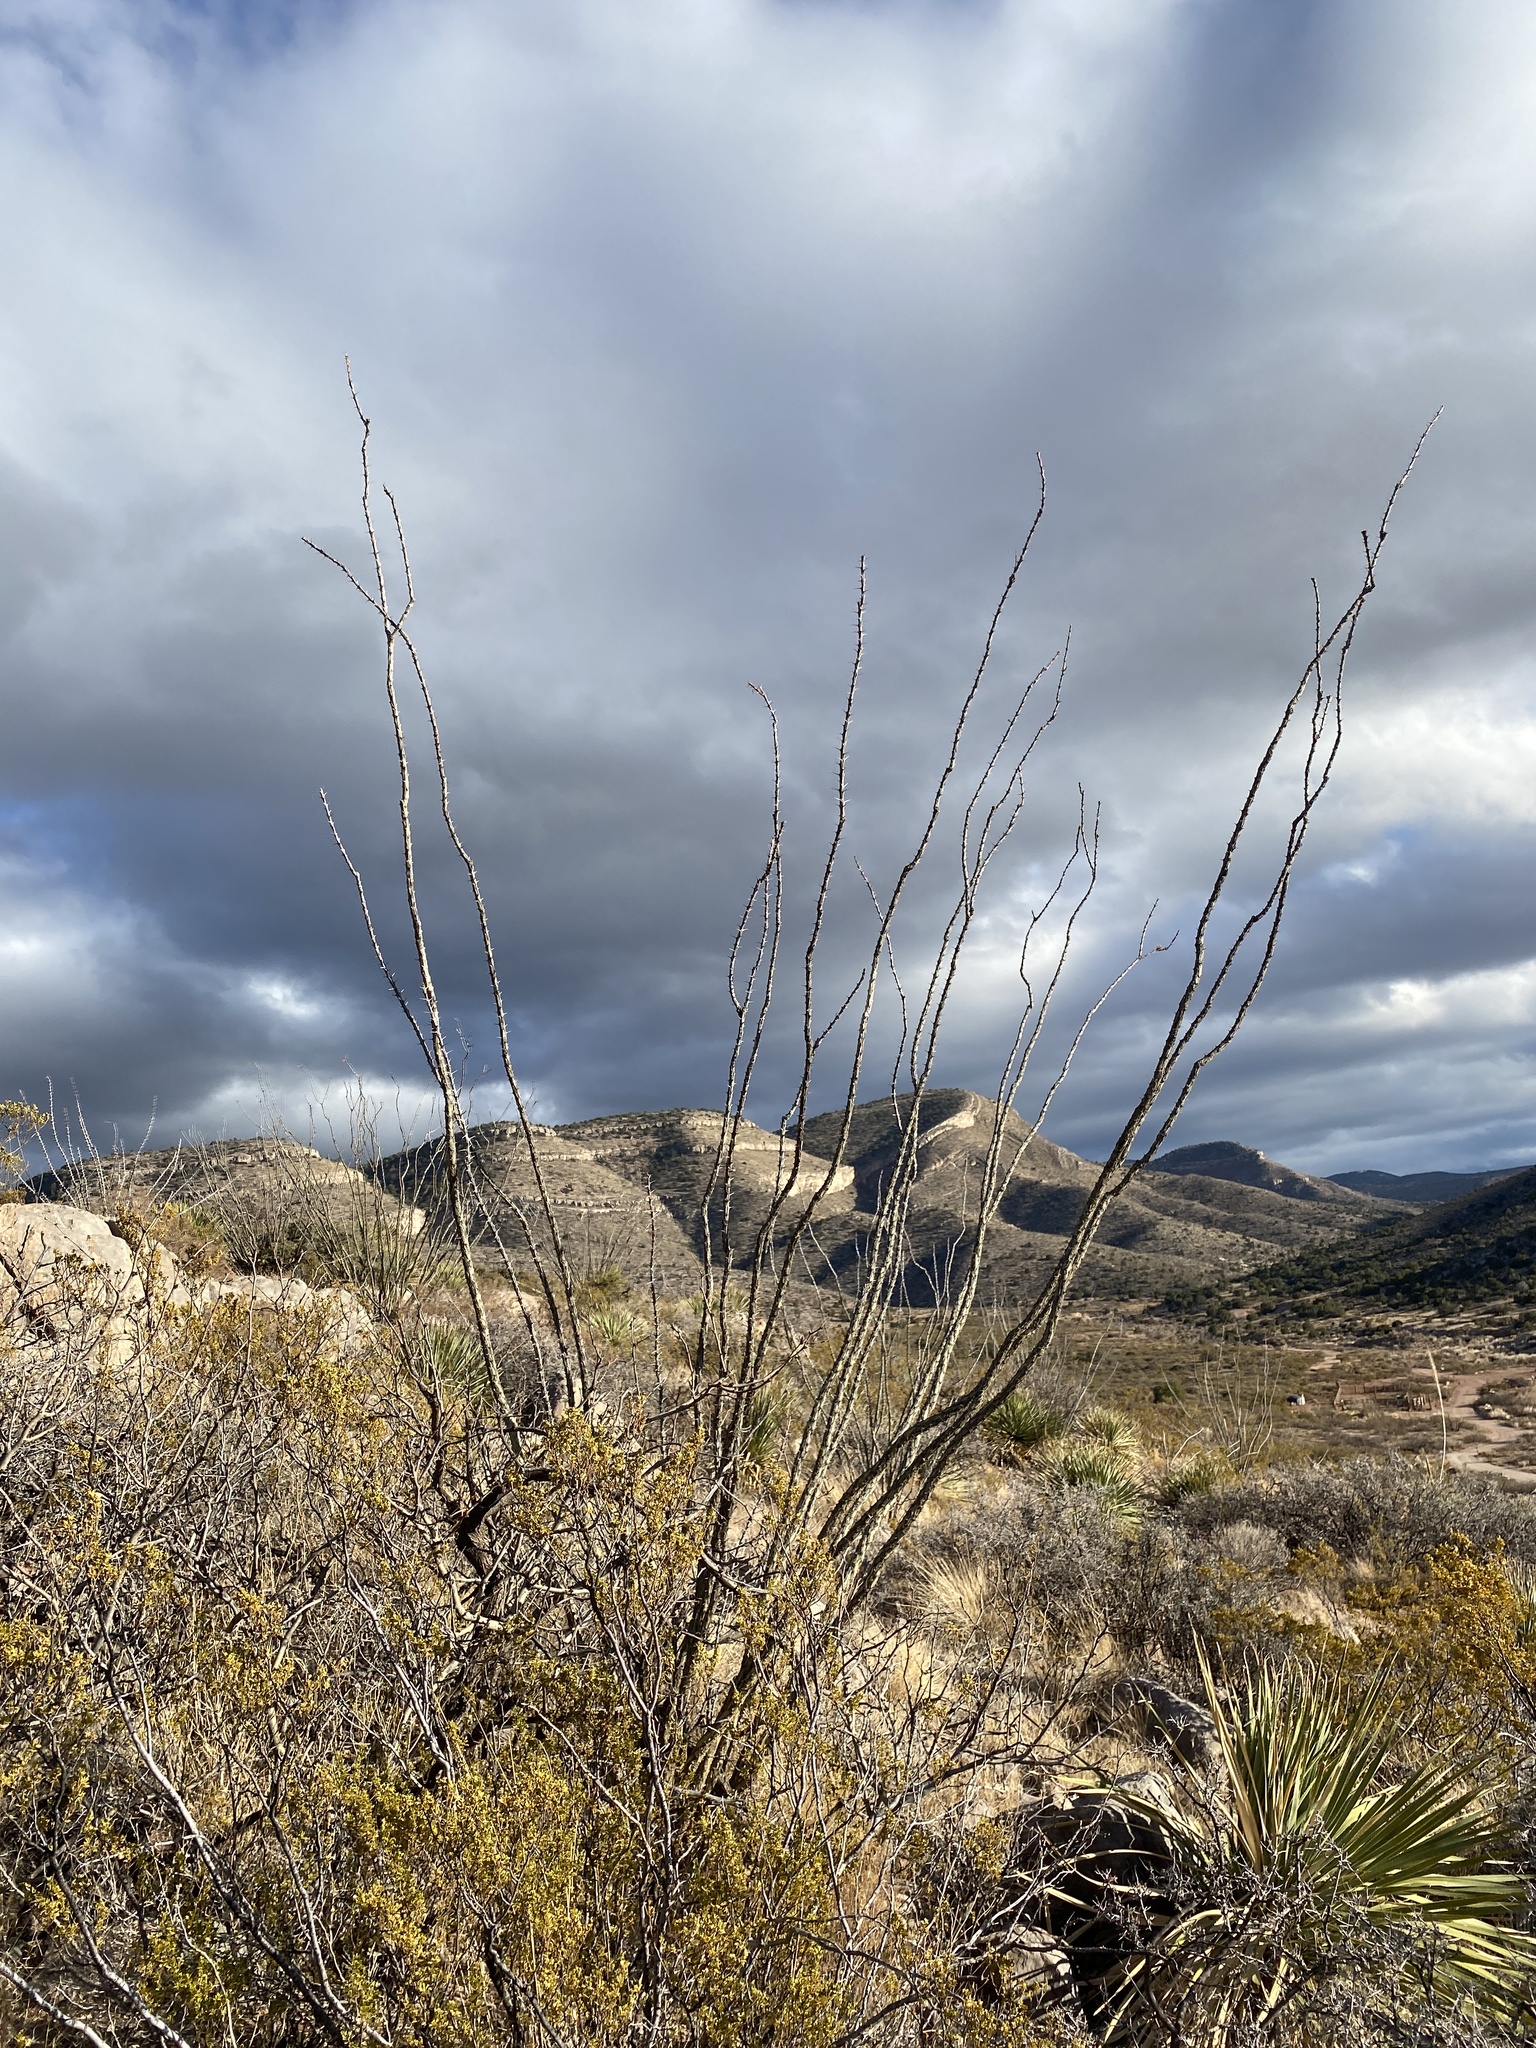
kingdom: Plantae
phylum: Tracheophyta
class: Magnoliopsida
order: Ericales
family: Fouquieriaceae
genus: Fouquieria
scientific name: Fouquieria splendens
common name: Vine-cactus
